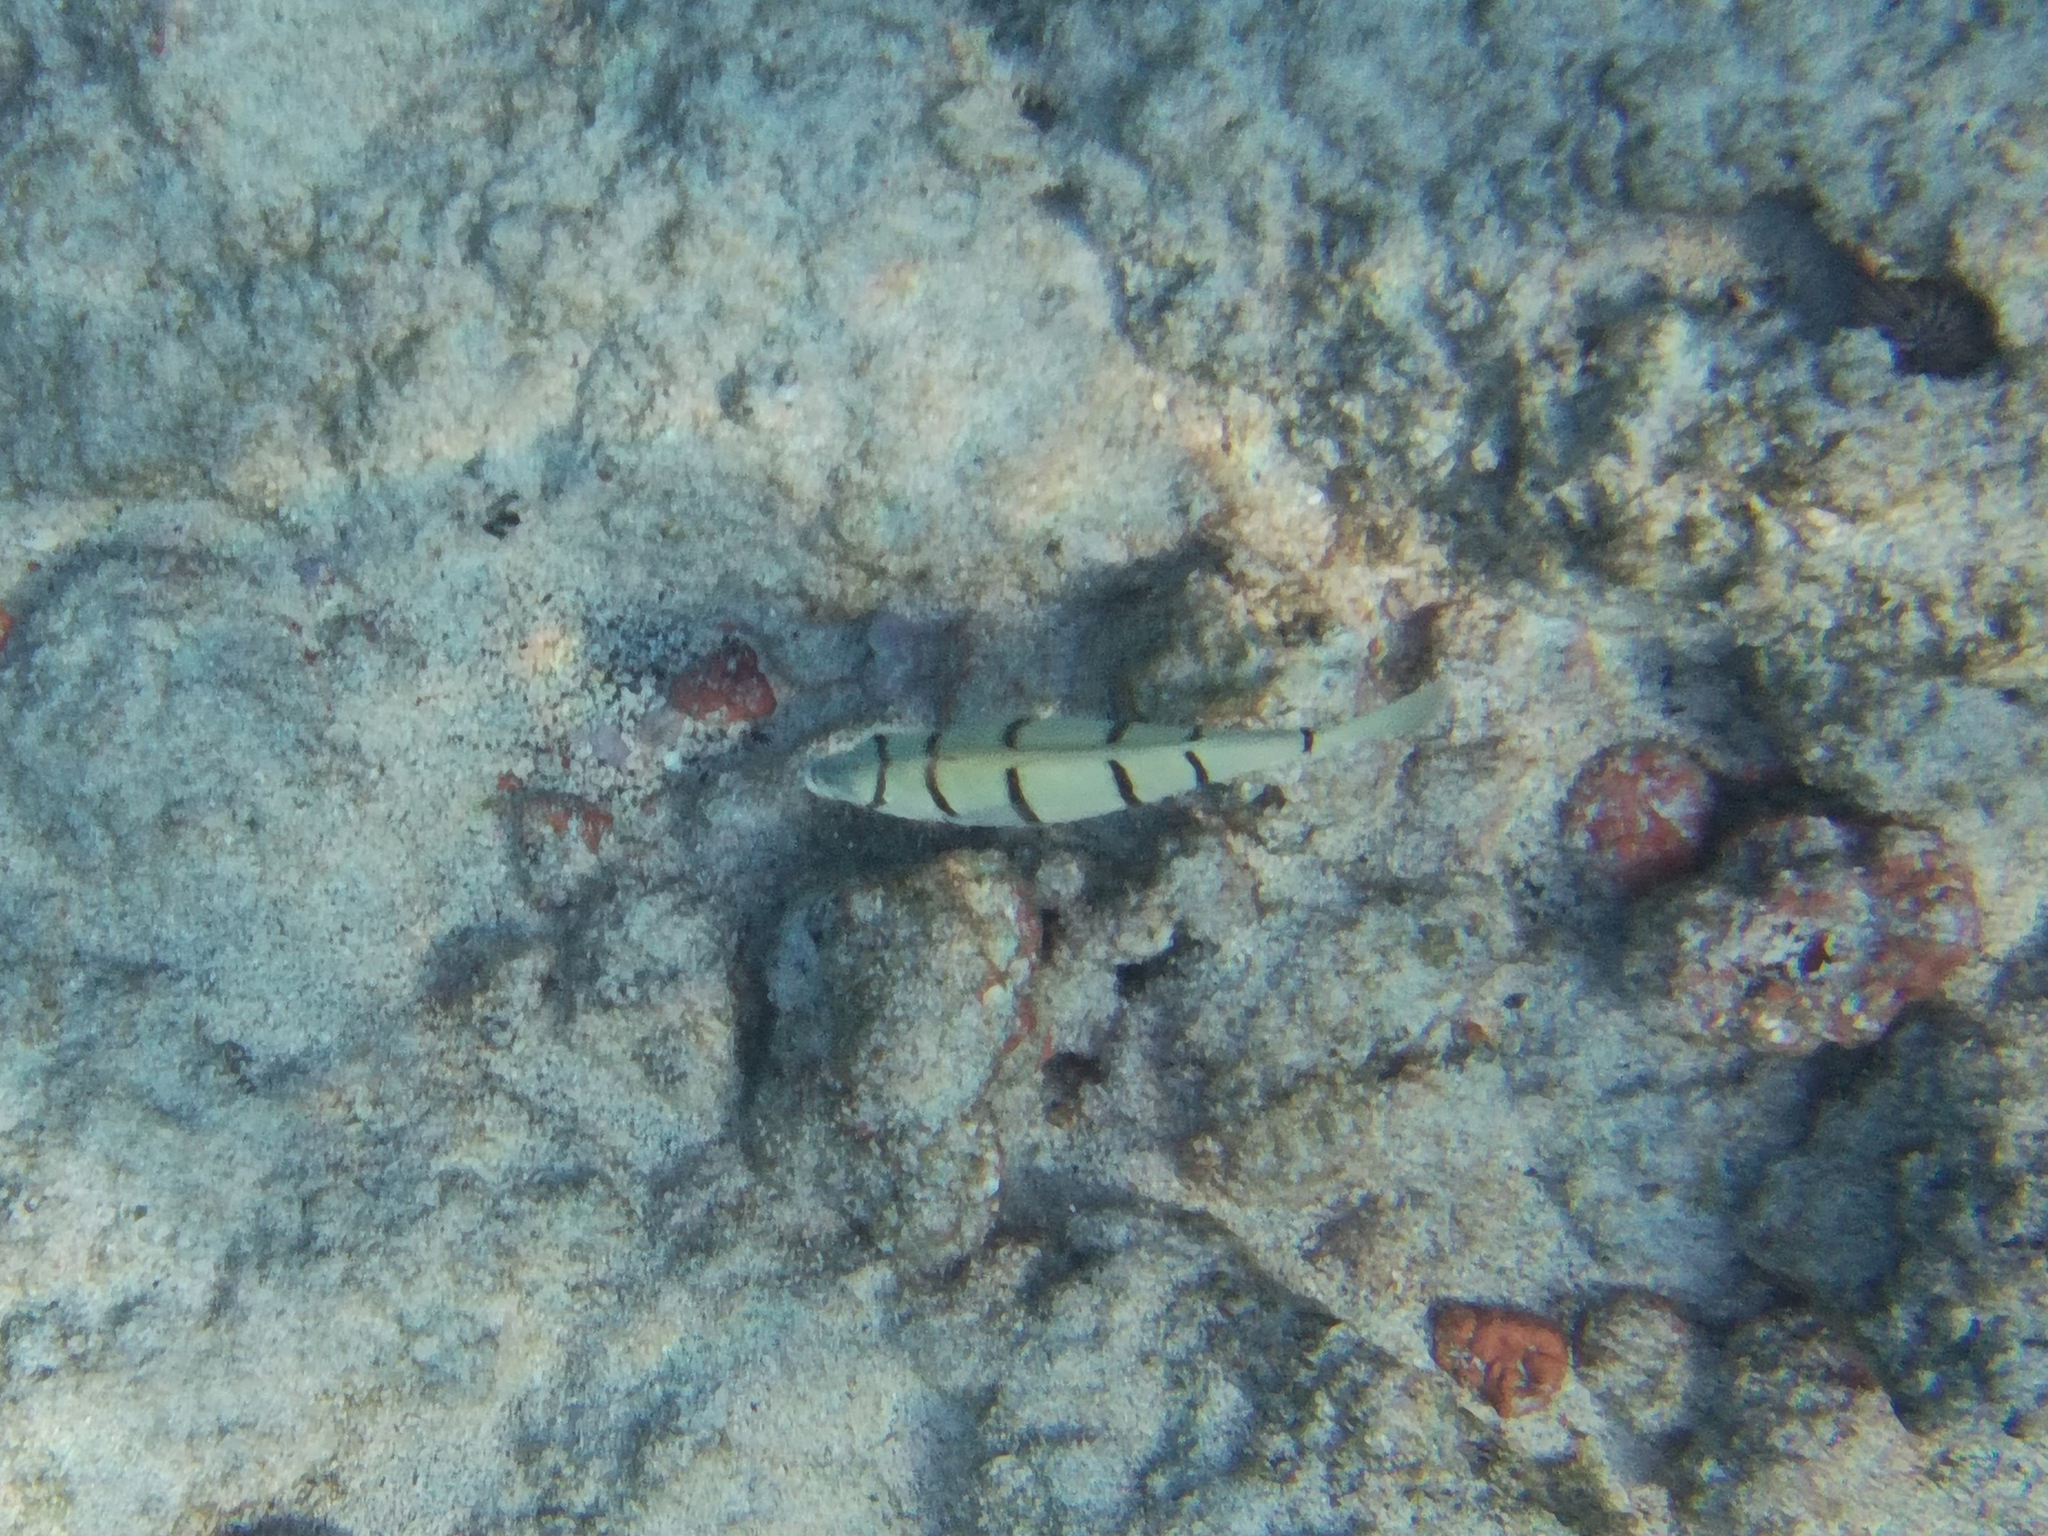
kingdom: Animalia
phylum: Chordata
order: Perciformes
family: Acanthuridae
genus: Acanthurus
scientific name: Acanthurus triostegus
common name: Convict surgeonfish
